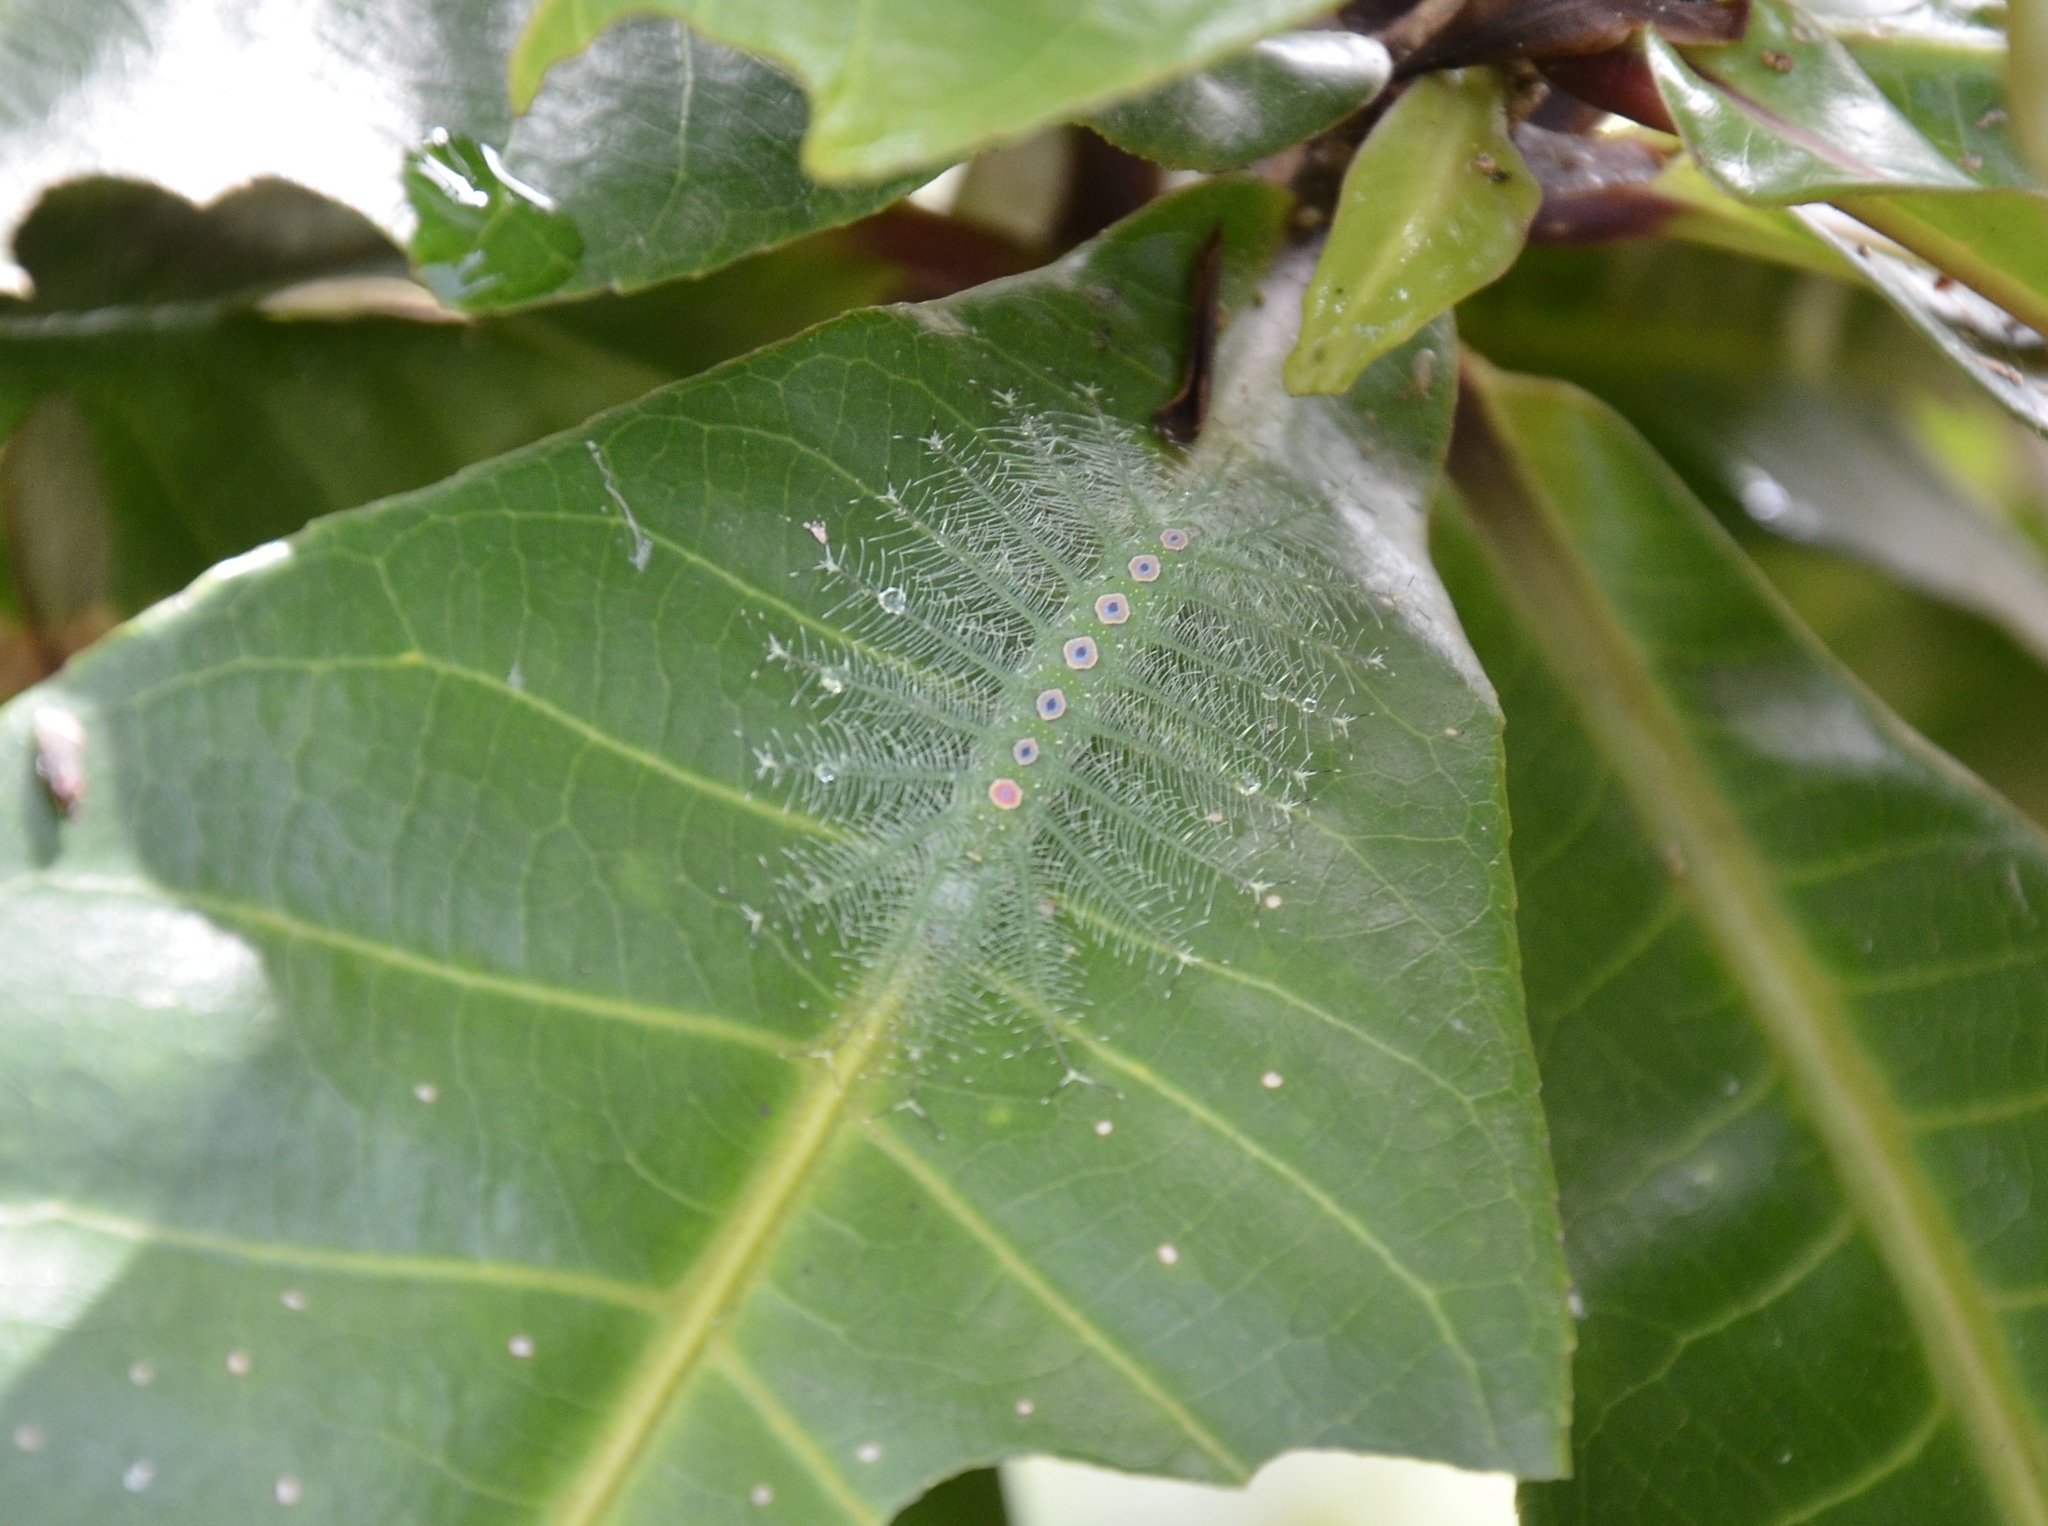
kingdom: Animalia
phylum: Arthropoda
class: Insecta
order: Lepidoptera
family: Nymphalidae
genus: Tanaecia
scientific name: Tanaecia lepidea
